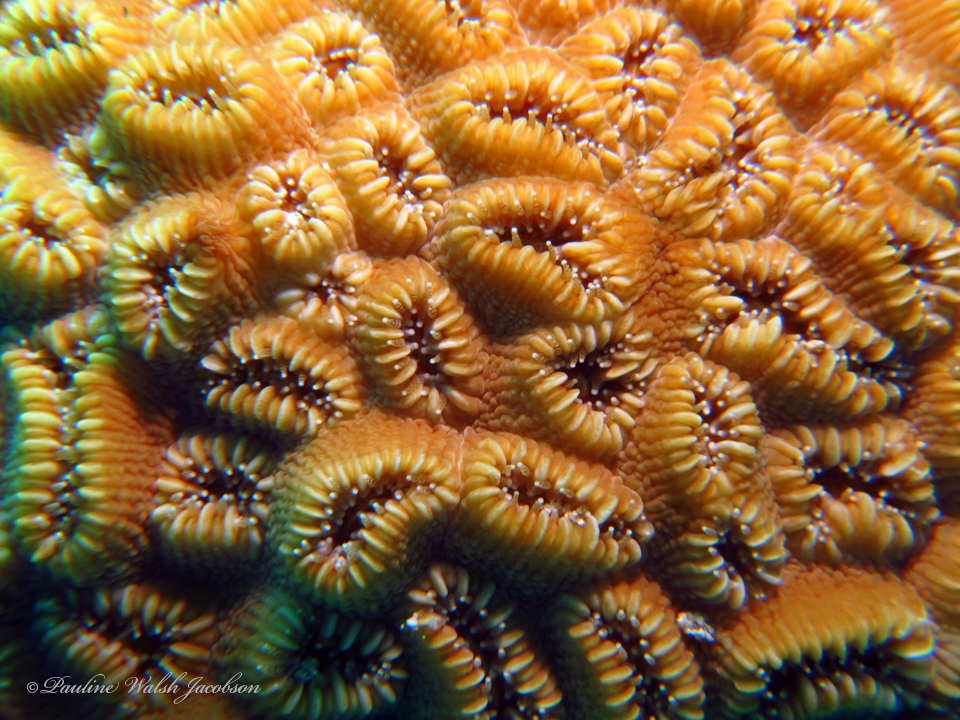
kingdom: Animalia
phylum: Cnidaria
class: Anthozoa
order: Scleractinia
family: Meandrinidae
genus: Dichocoenia
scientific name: Dichocoenia stokesii
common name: Pineapple coral
